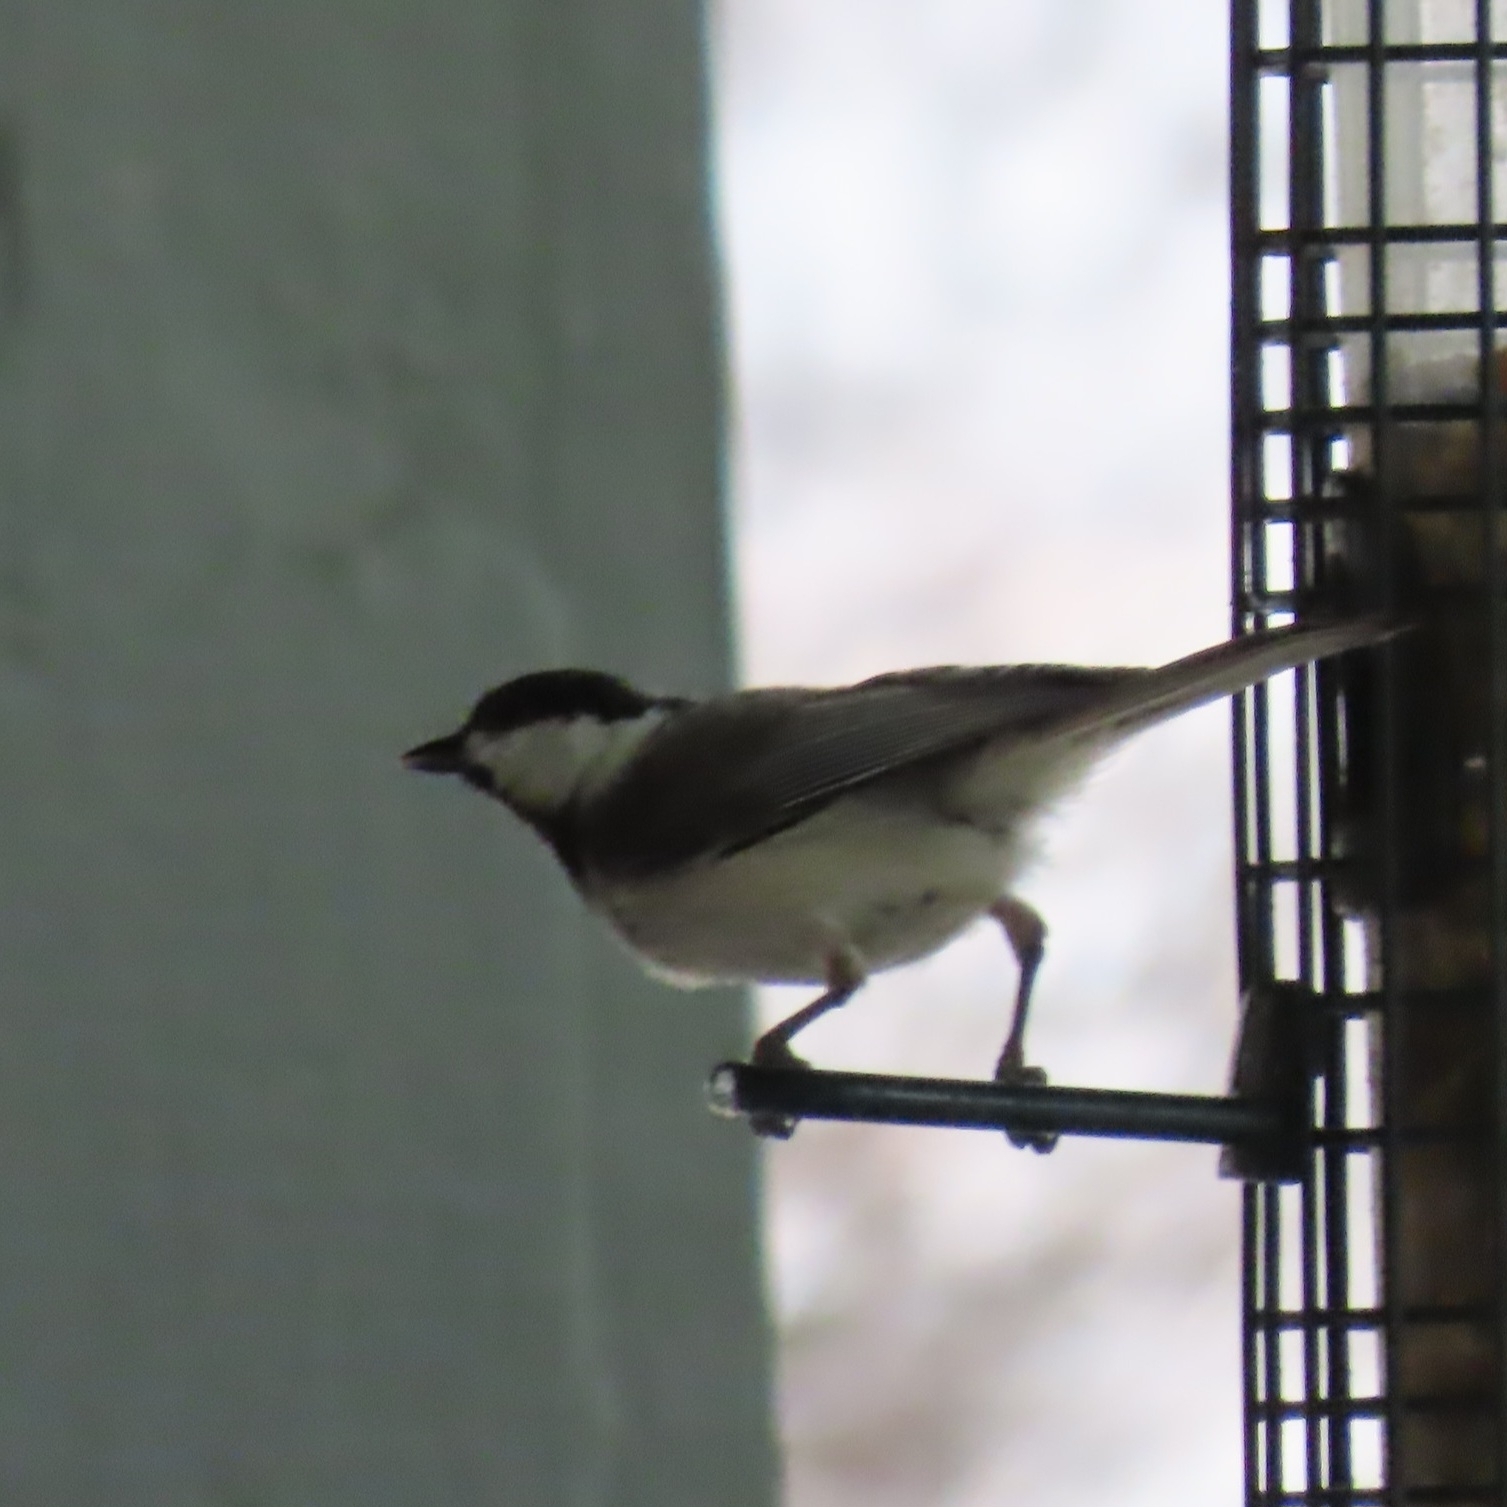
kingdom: Animalia
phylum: Chordata
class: Aves
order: Passeriformes
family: Paridae
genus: Poecile
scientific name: Poecile carolinensis
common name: Carolina chickadee
